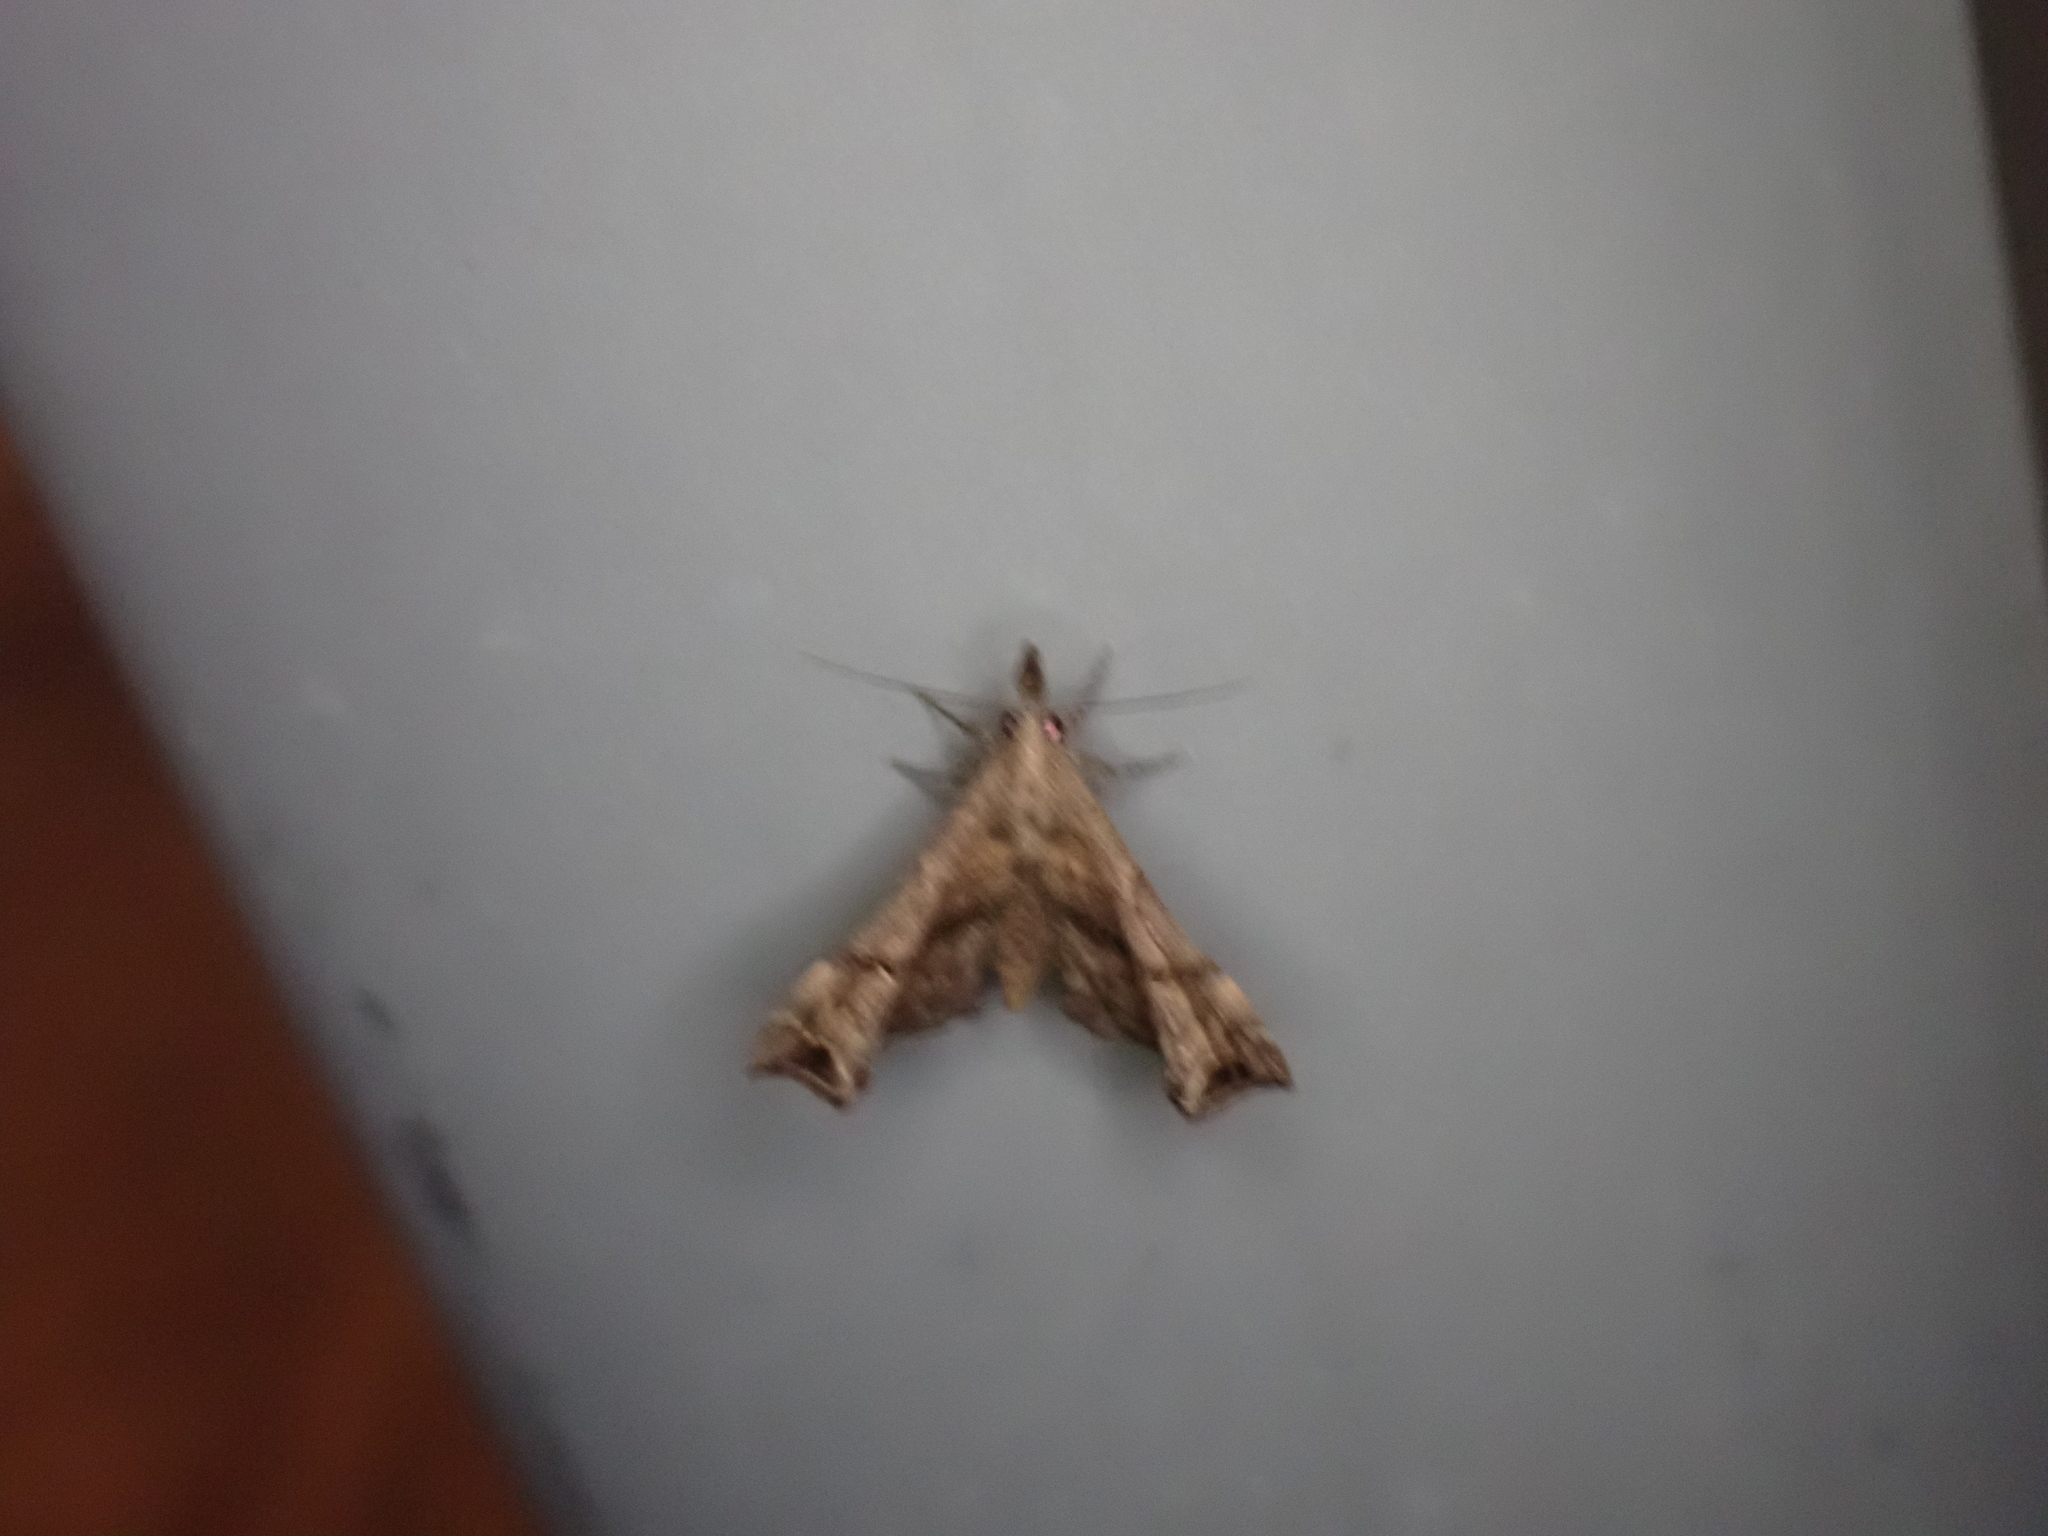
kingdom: Animalia
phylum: Arthropoda
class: Insecta
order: Lepidoptera
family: Erebidae
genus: Palthis
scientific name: Palthis asopialis
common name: Faint-spotted palthis moth
